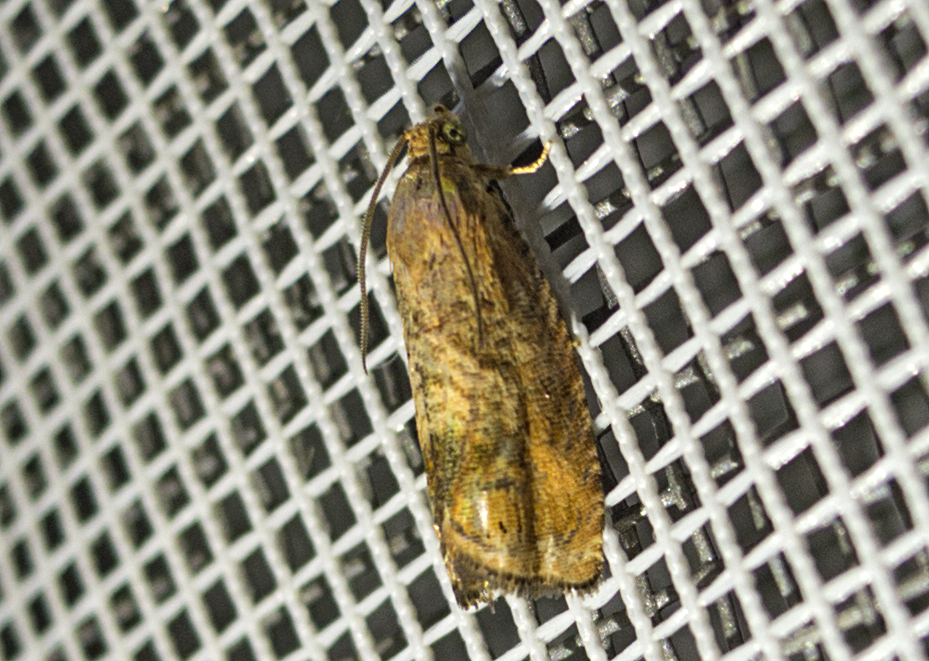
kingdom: Animalia
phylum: Arthropoda
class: Insecta
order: Lepidoptera
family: Tortricidae
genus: Cydia
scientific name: Cydia amplana
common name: Vagrant piercer
